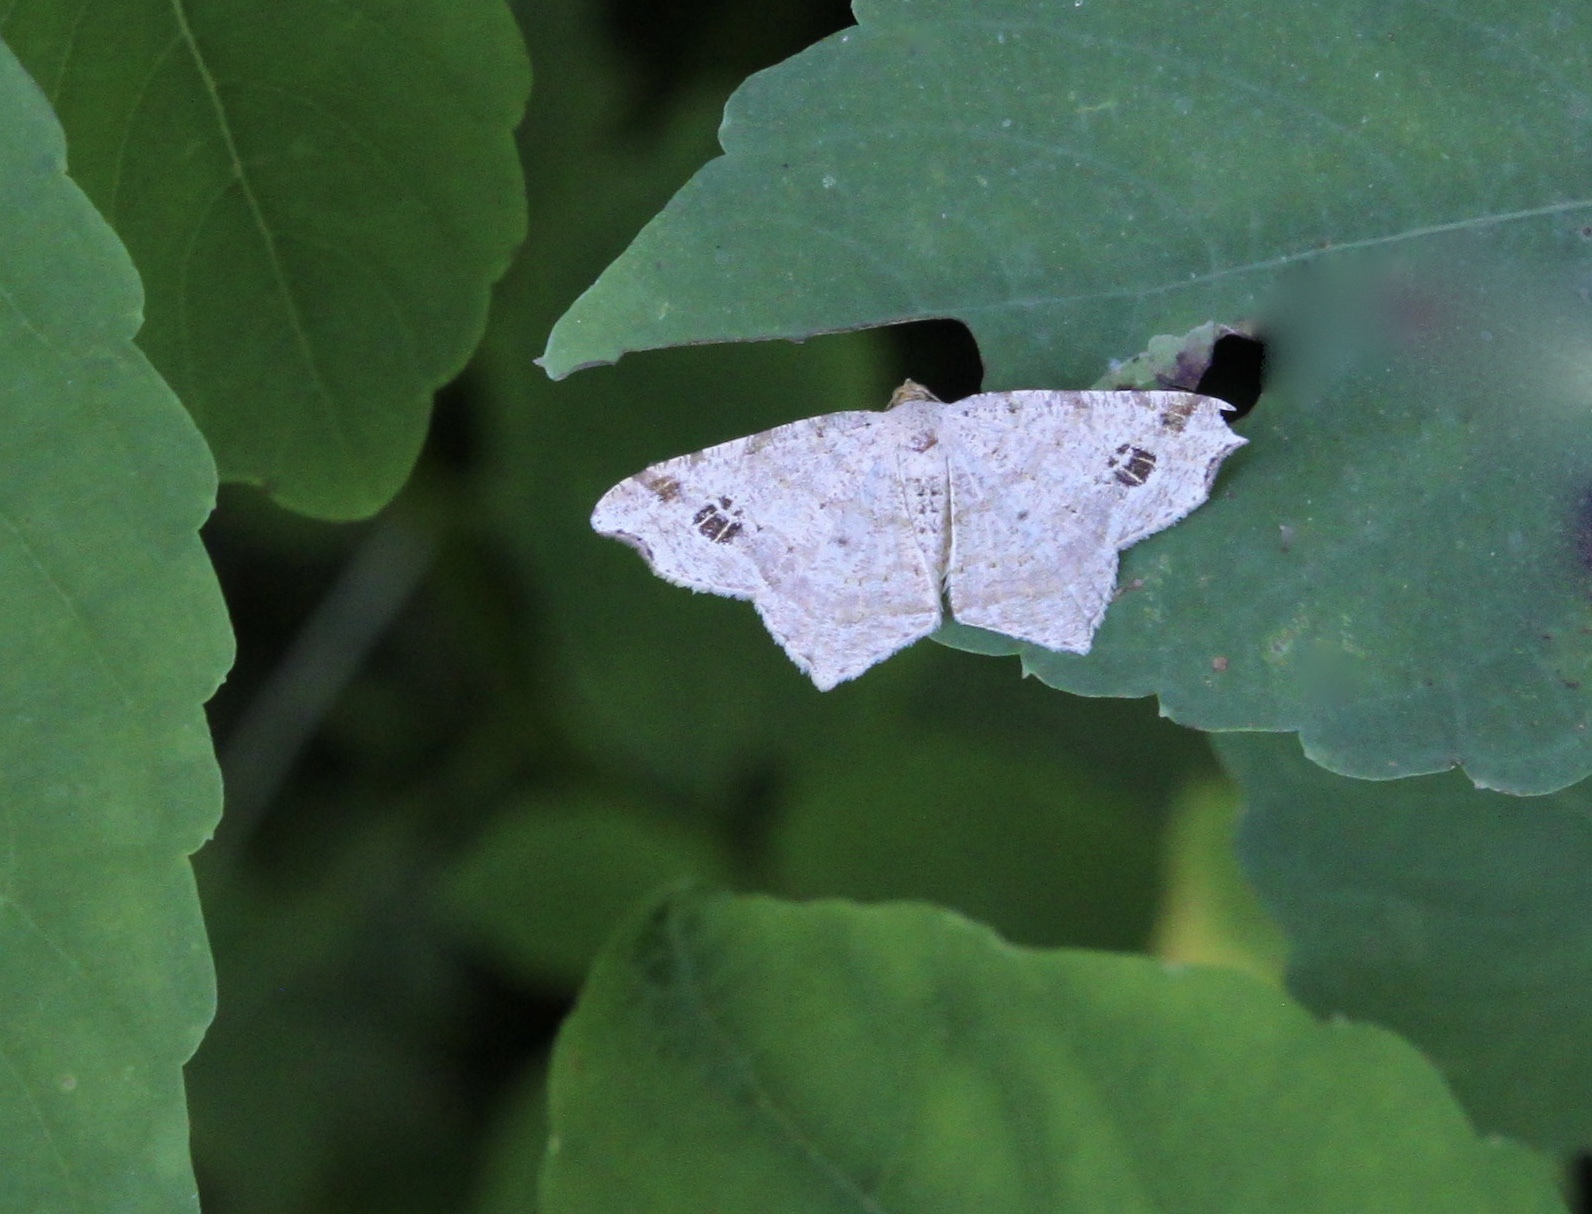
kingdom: Animalia
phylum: Arthropoda
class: Insecta
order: Lepidoptera
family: Geometridae
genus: Macaria
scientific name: Macaria aemulataria
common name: Common angle
